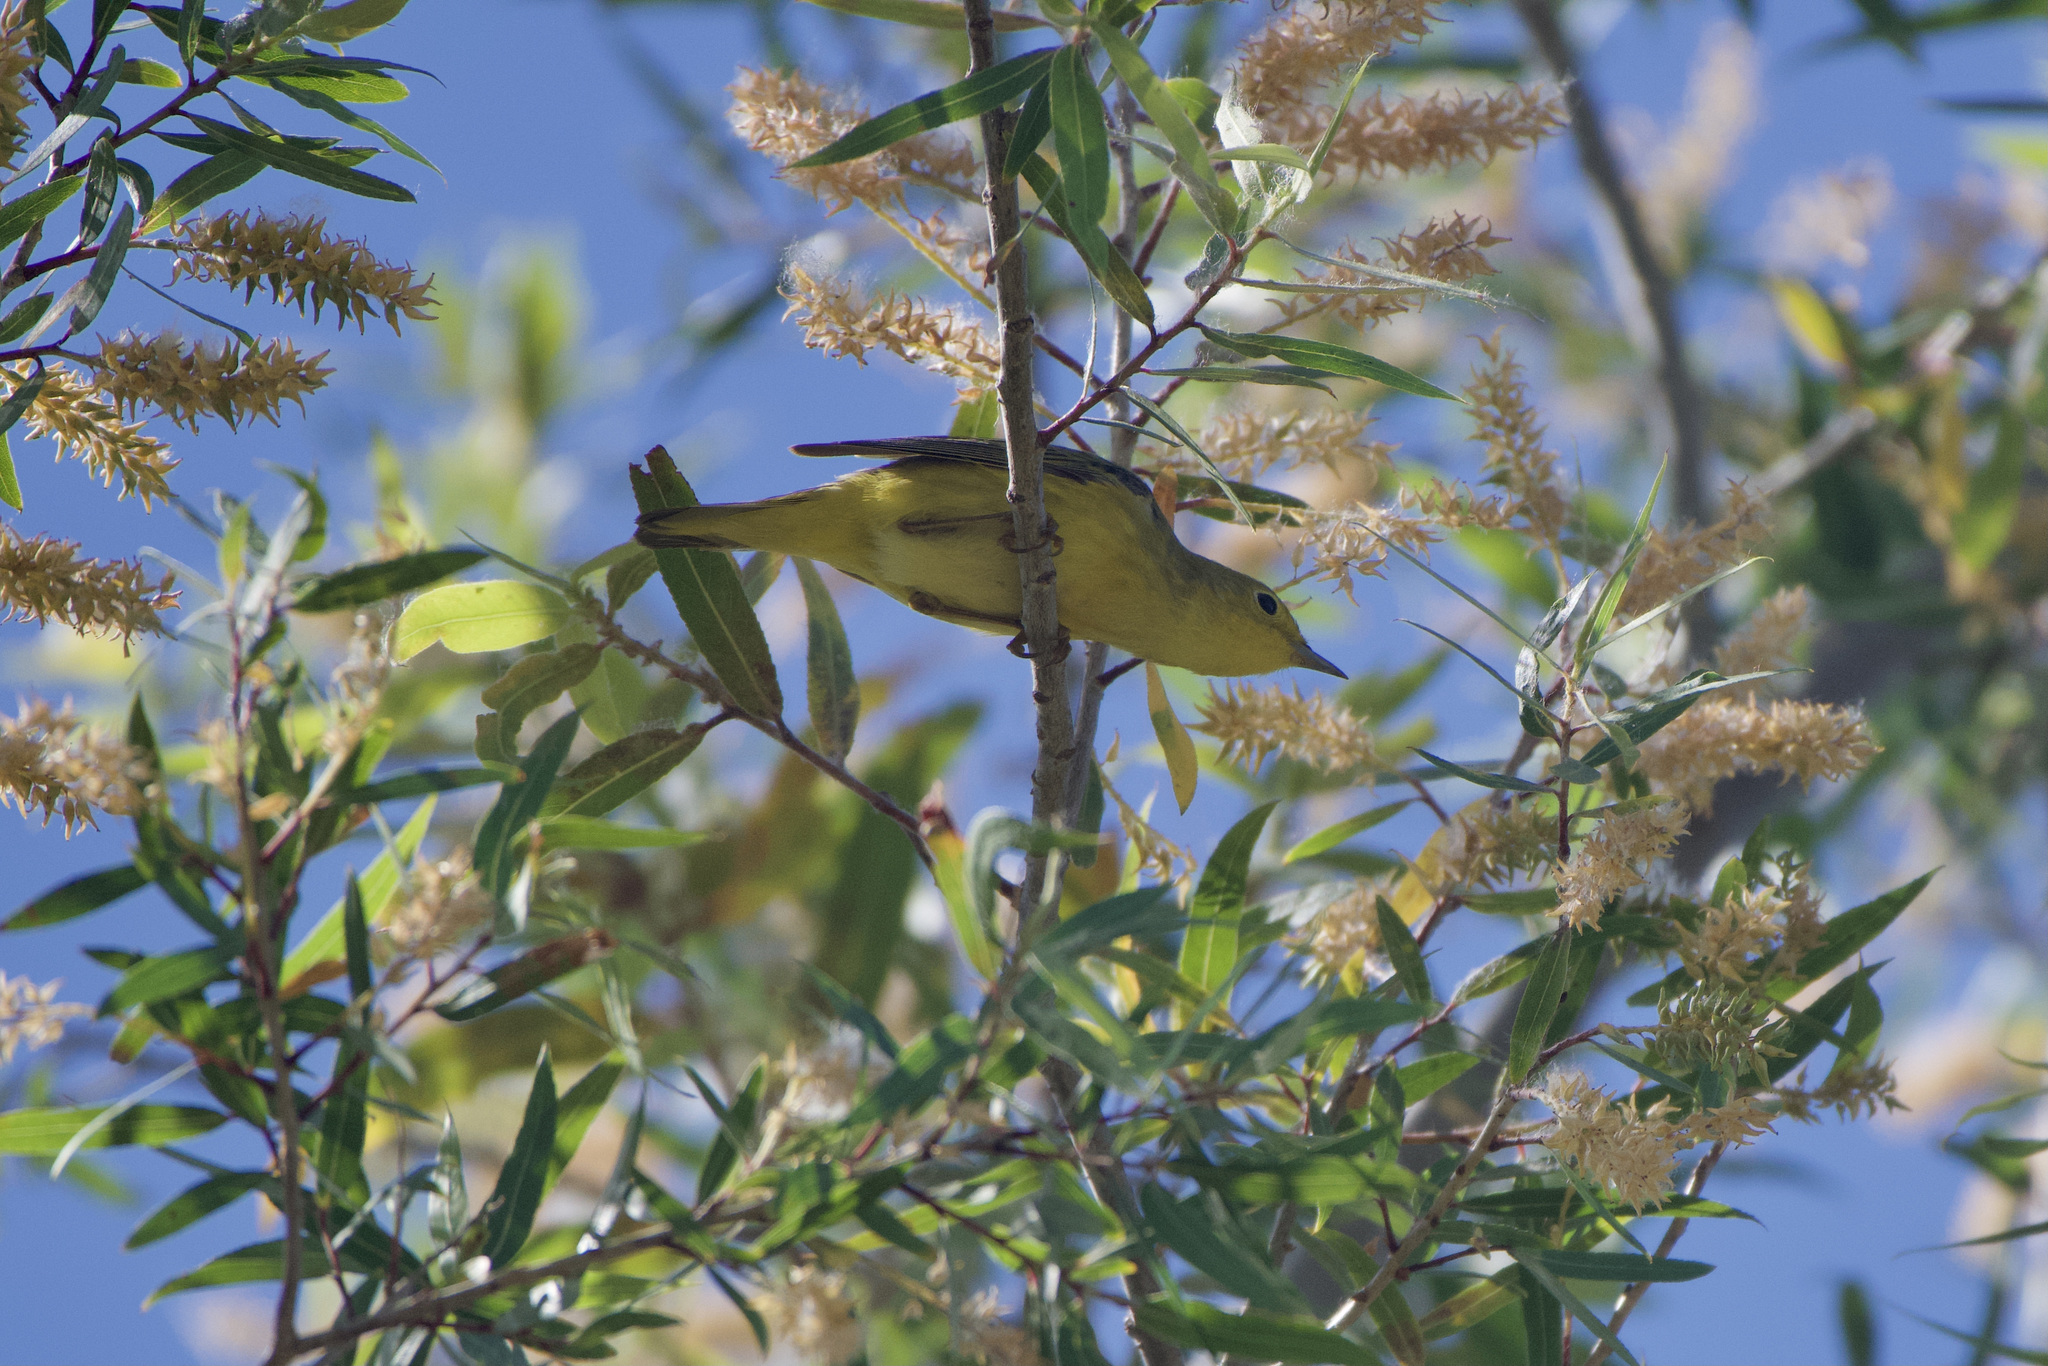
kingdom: Animalia
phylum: Chordata
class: Aves
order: Passeriformes
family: Parulidae
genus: Setophaga
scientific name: Setophaga petechia
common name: Yellow warbler
